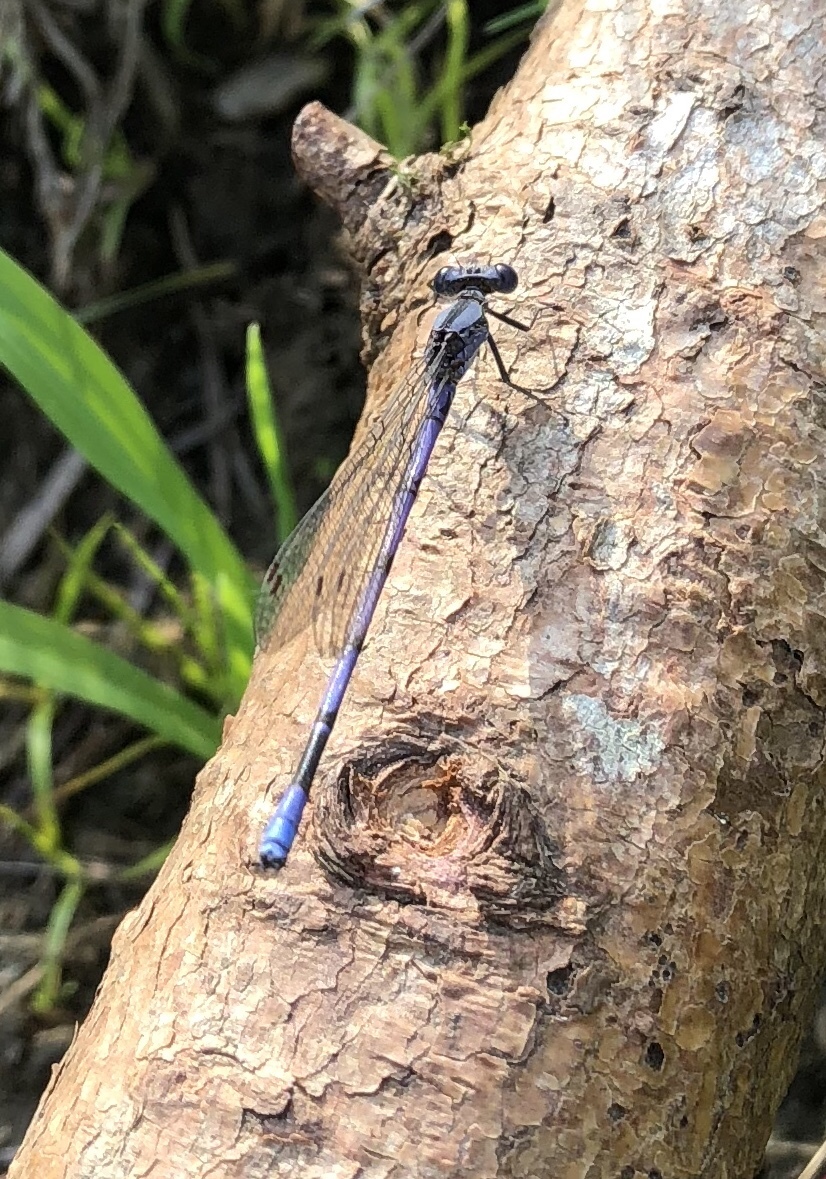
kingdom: Animalia
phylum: Arthropoda
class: Insecta
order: Odonata
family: Coenagrionidae
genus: Argia
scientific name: Argia fumipennis
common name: Variable dancer
